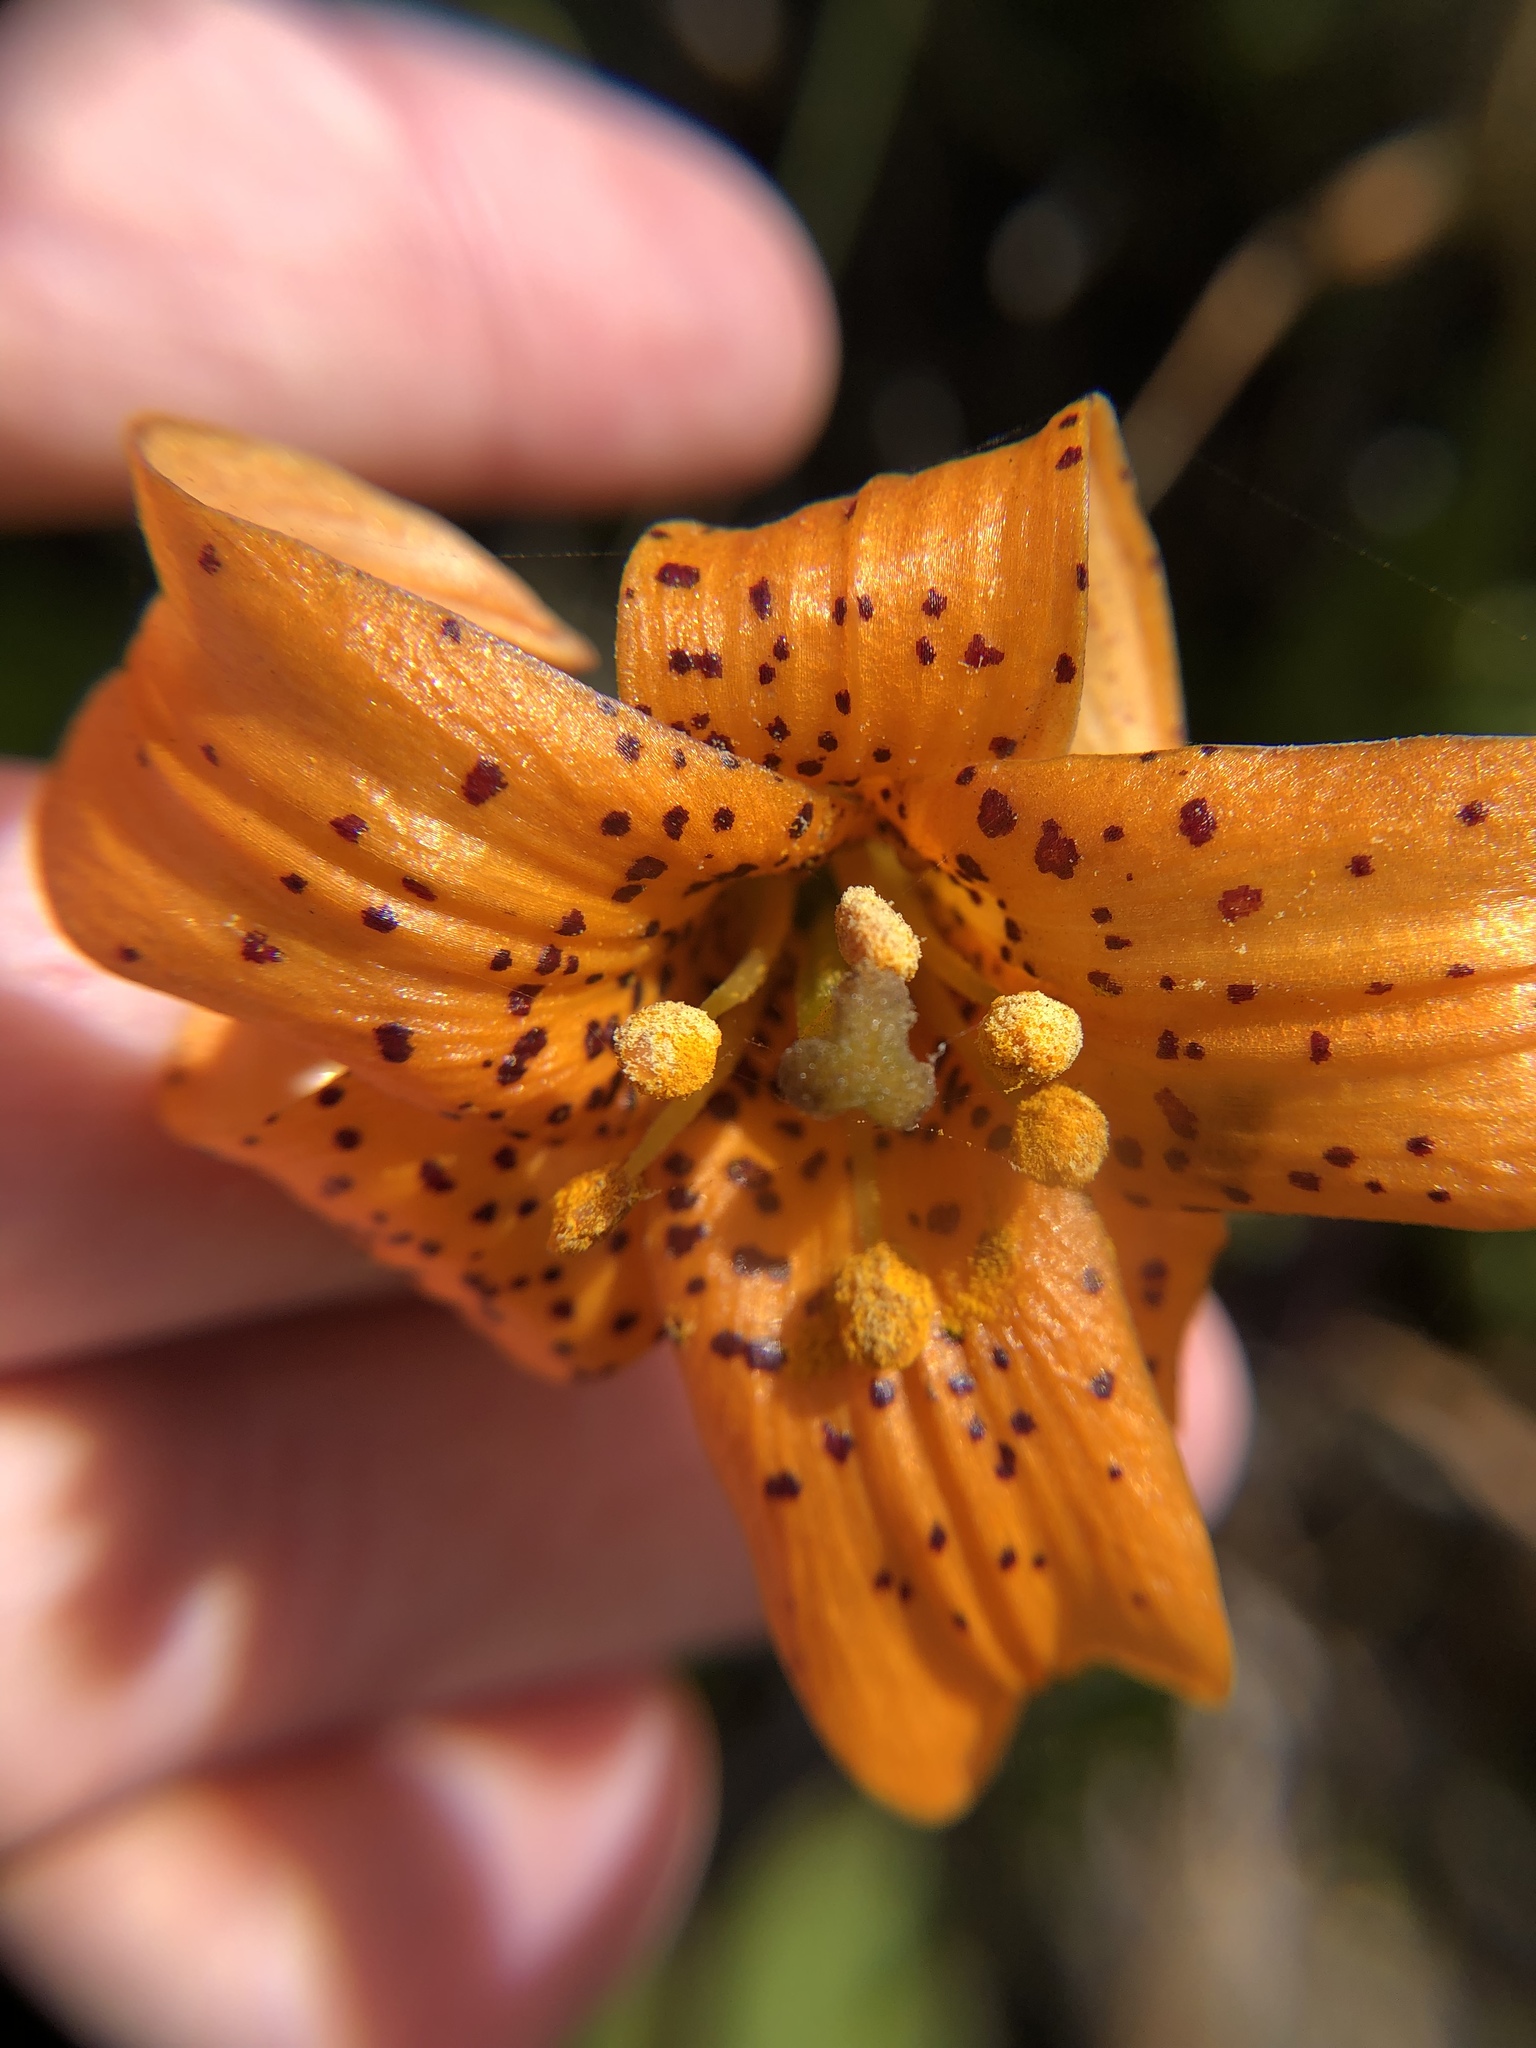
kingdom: Plantae
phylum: Tracheophyta
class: Liliopsida
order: Liliales
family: Liliaceae
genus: Lilium
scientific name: Lilium columbianum
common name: Columbia lily
